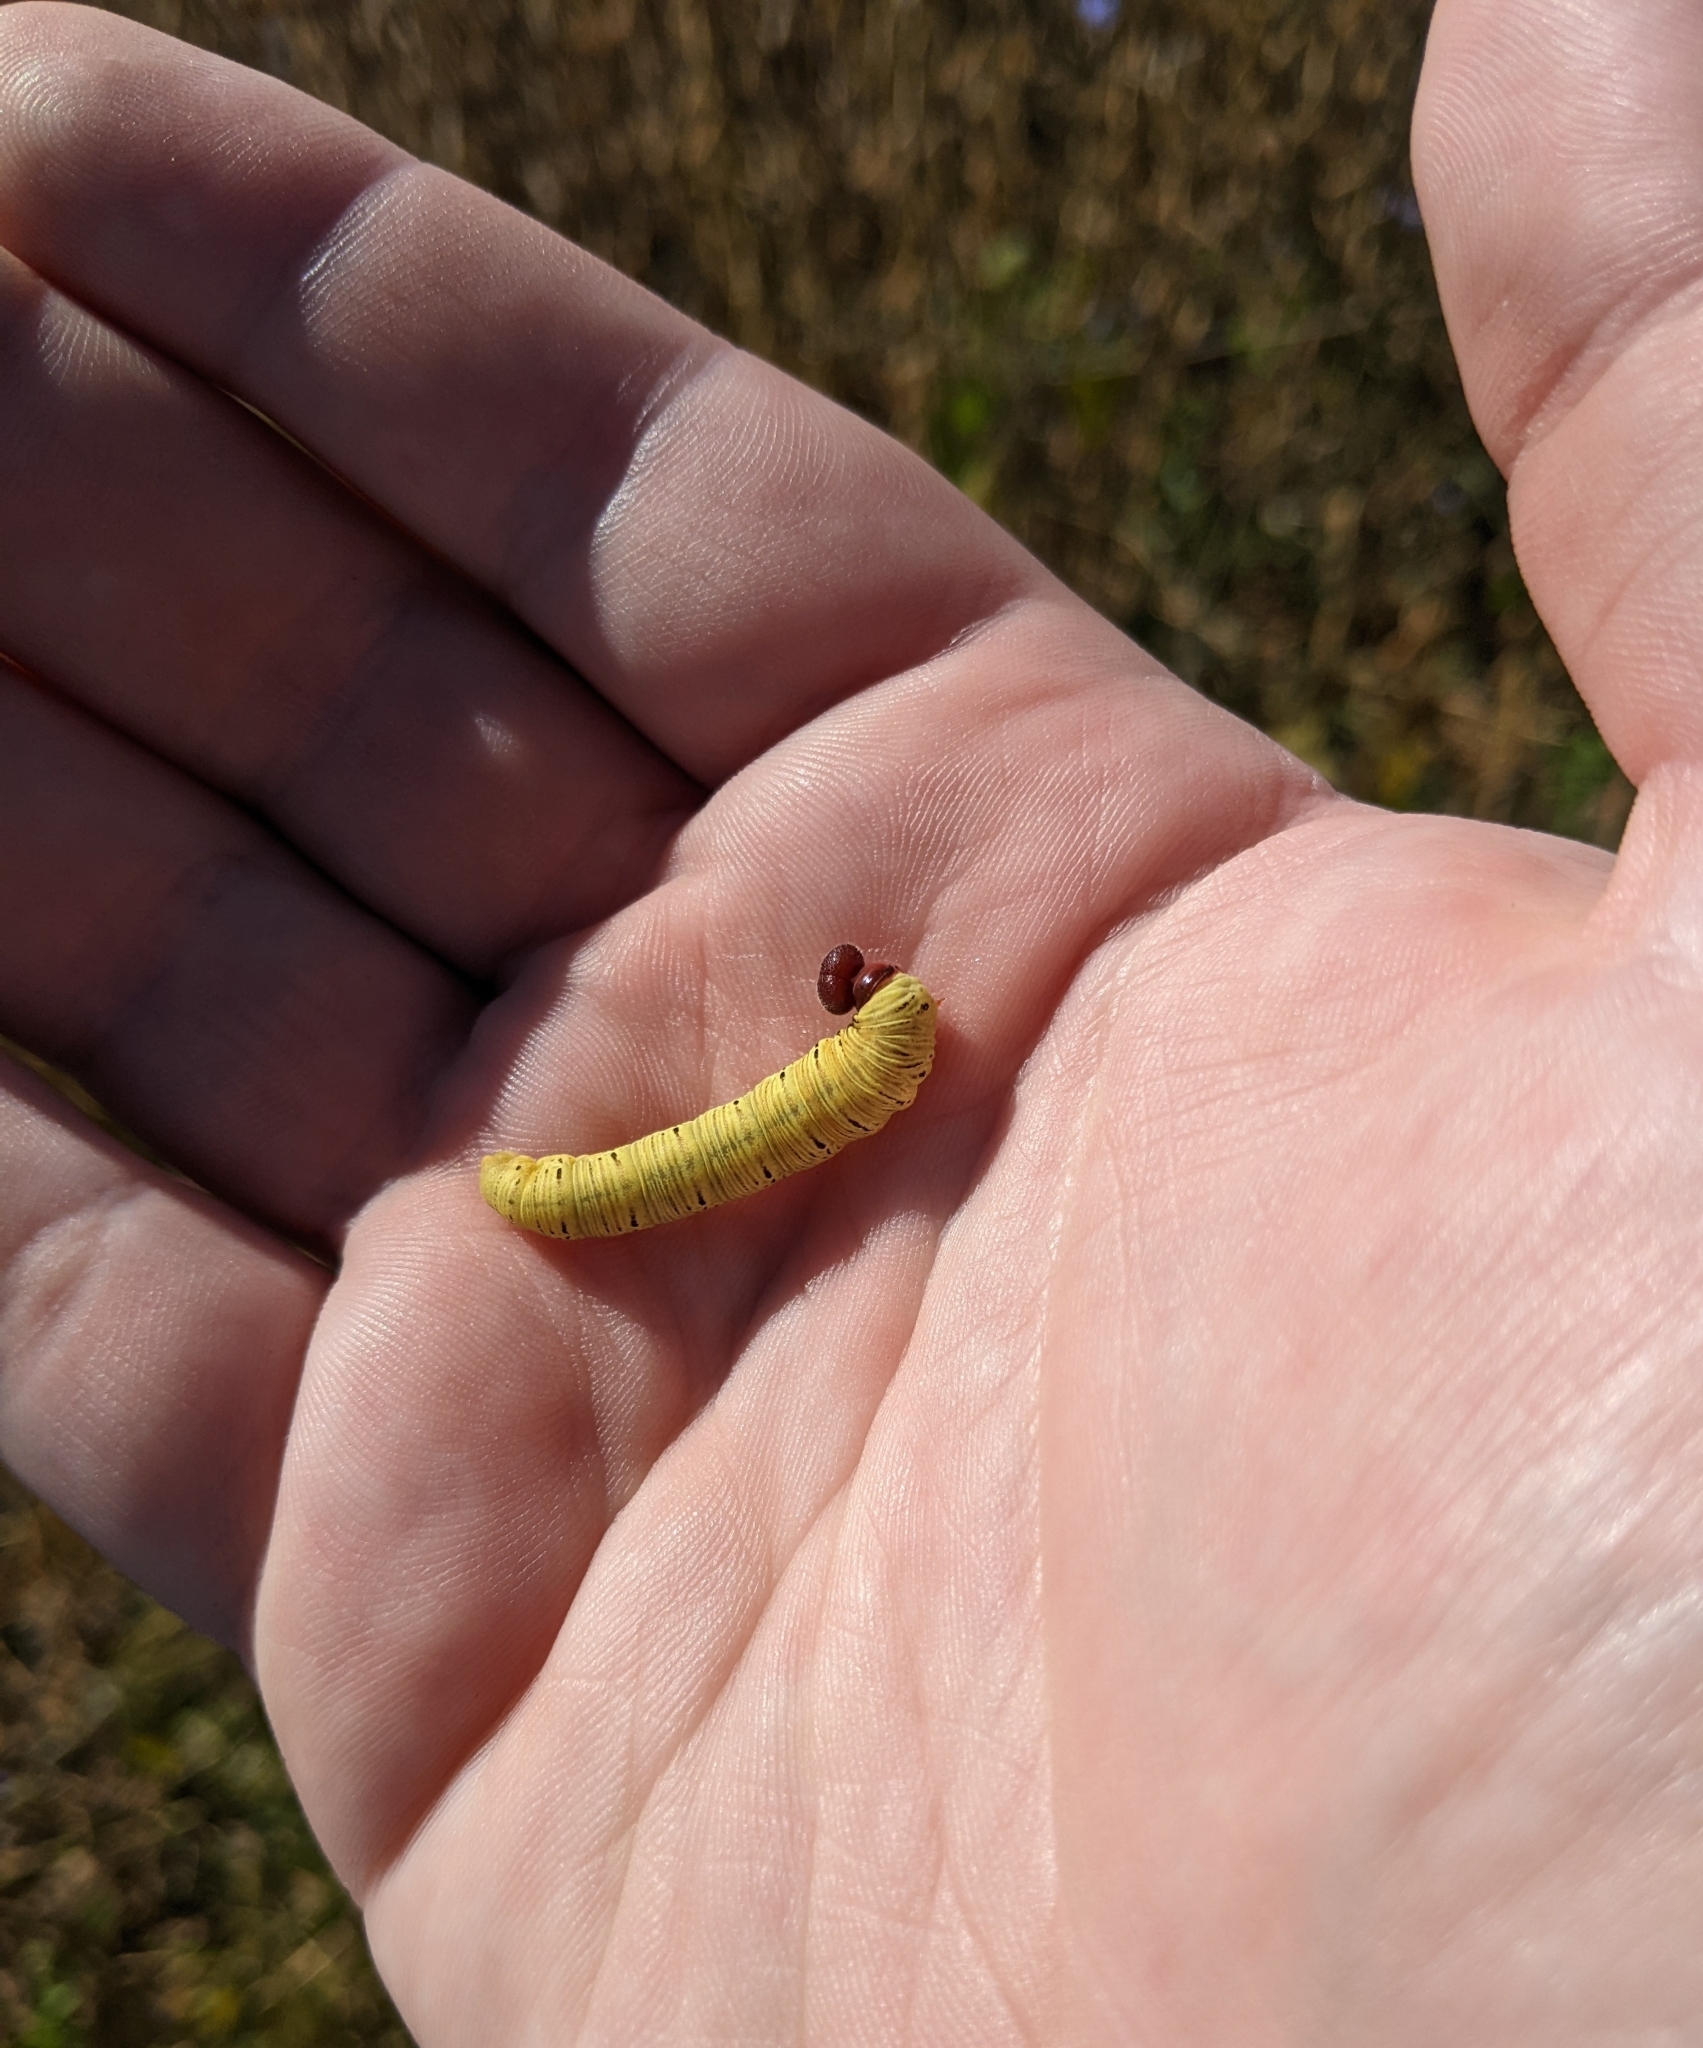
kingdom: Animalia
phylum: Arthropoda
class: Insecta
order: Lepidoptera
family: Hesperiidae
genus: Epargyreus
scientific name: Epargyreus clarus
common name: Silver-spotted skipper
